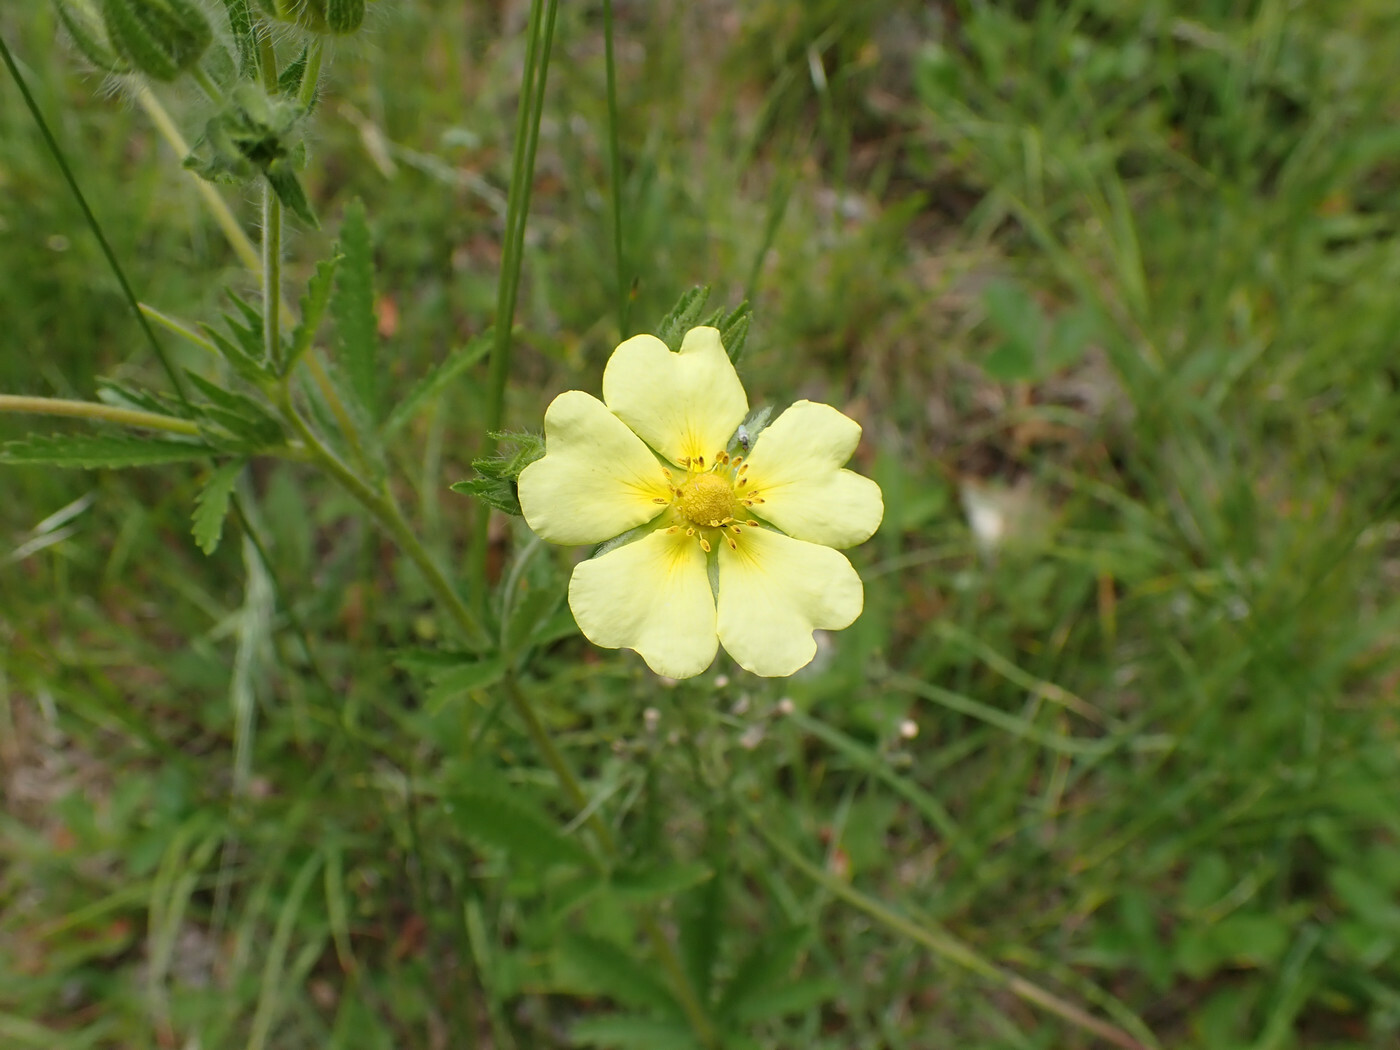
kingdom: Plantae
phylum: Tracheophyta
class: Magnoliopsida
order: Rosales
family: Rosaceae
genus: Potentilla
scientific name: Potentilla recta
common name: Sulphur cinquefoil
